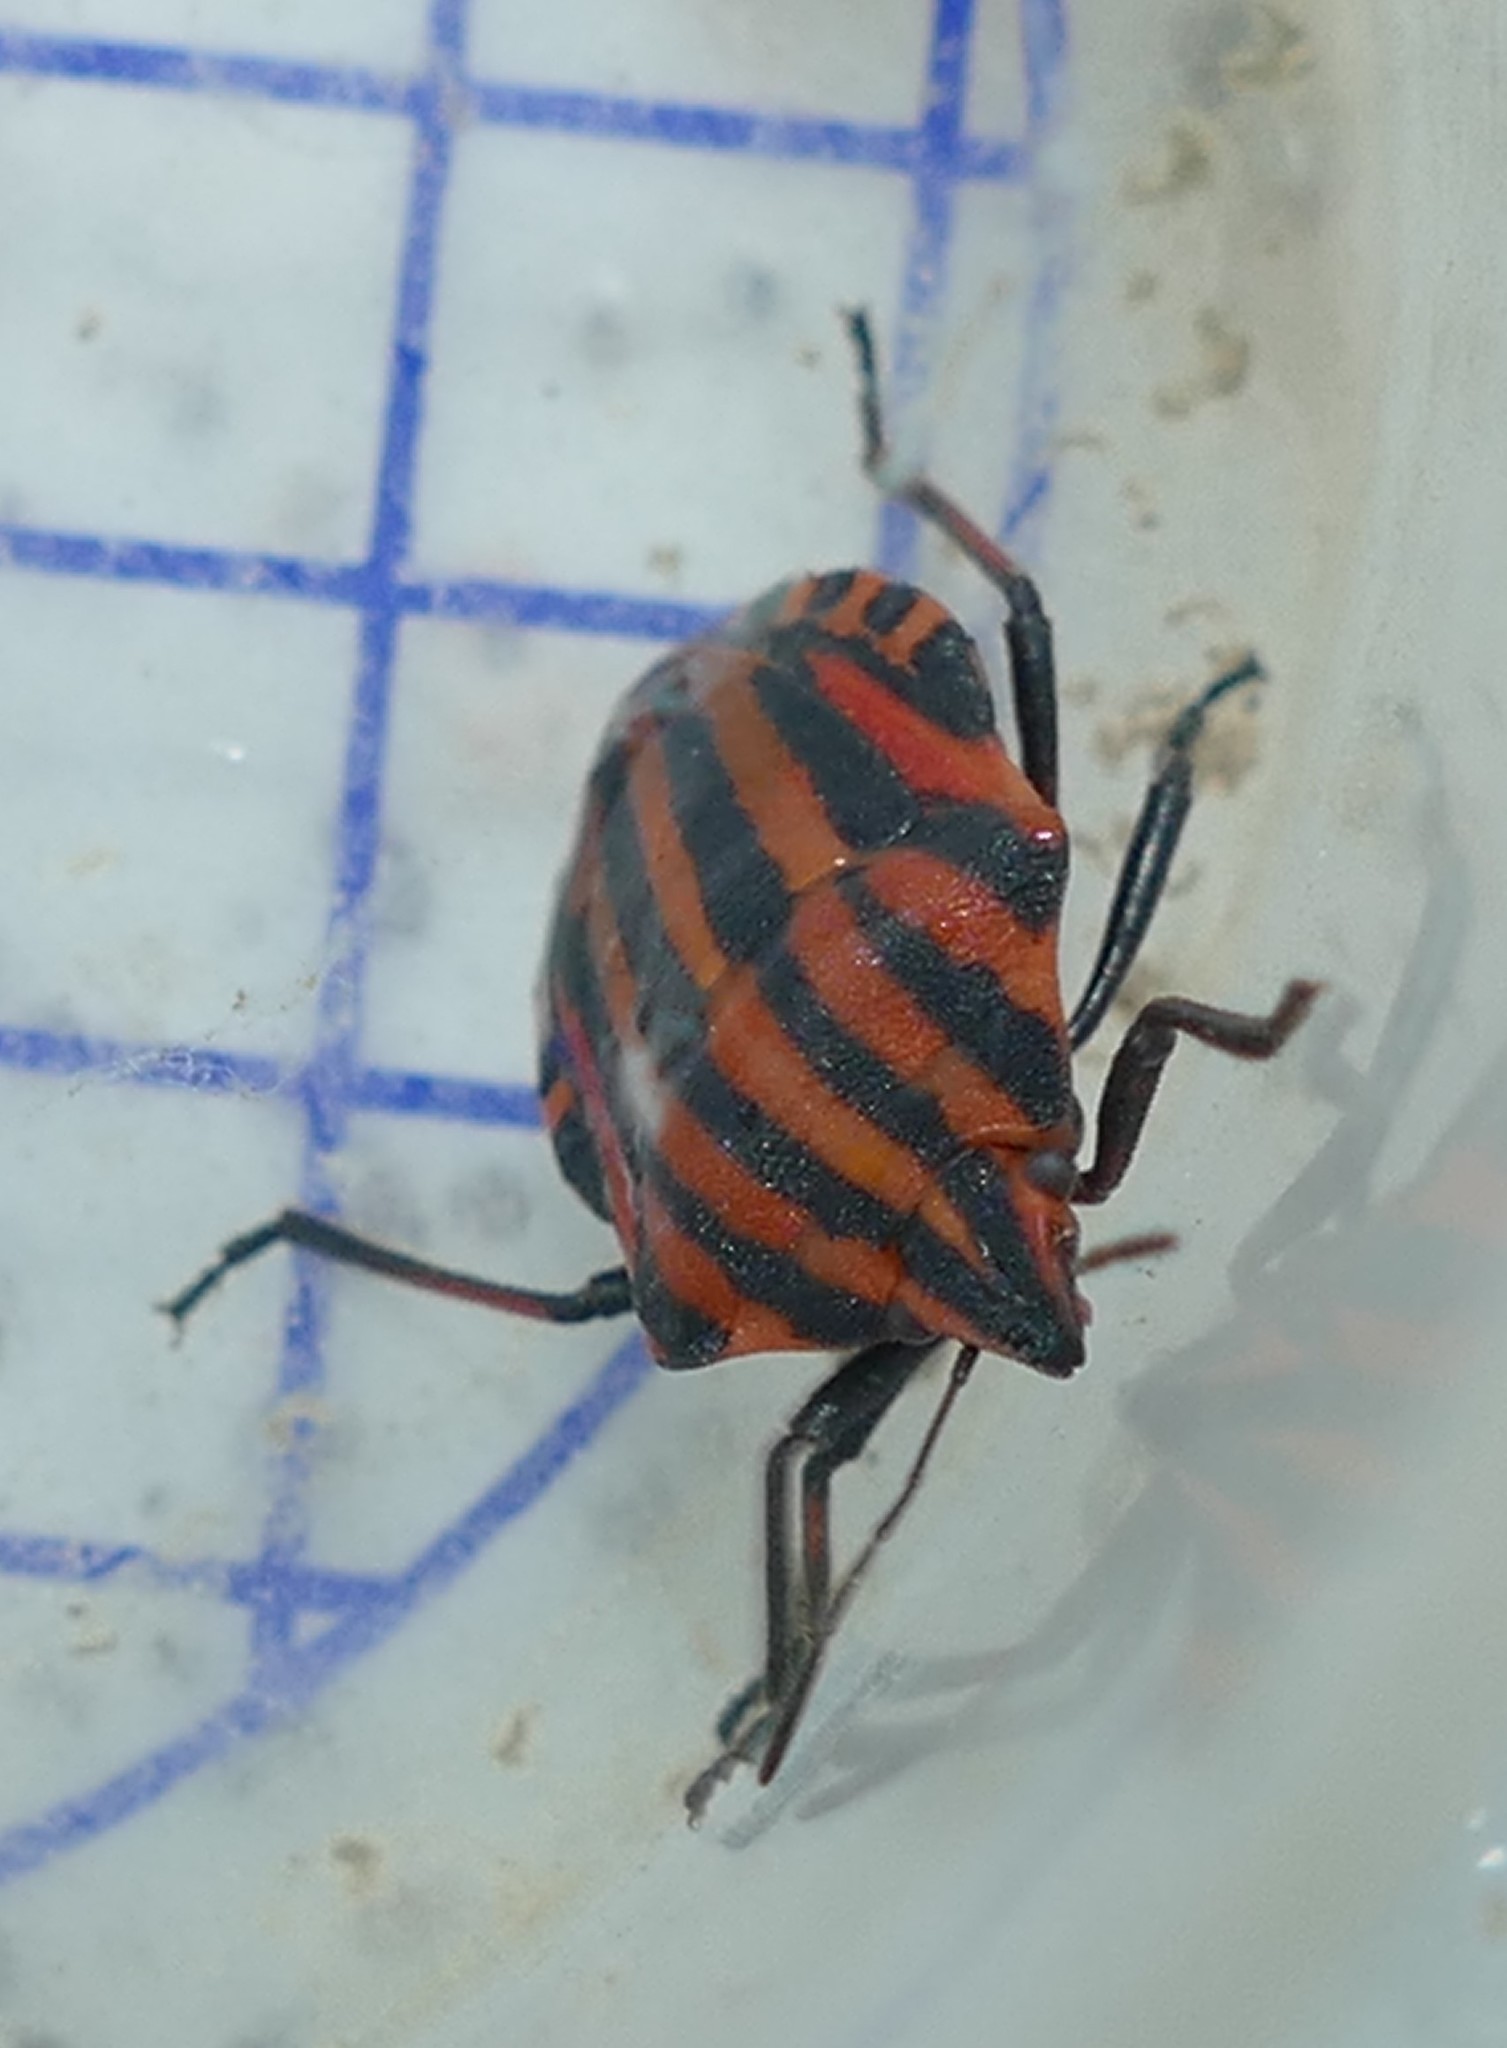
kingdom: Animalia
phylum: Arthropoda
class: Insecta
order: Hemiptera
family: Pentatomidae
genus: Graphosoma
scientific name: Graphosoma italicum
